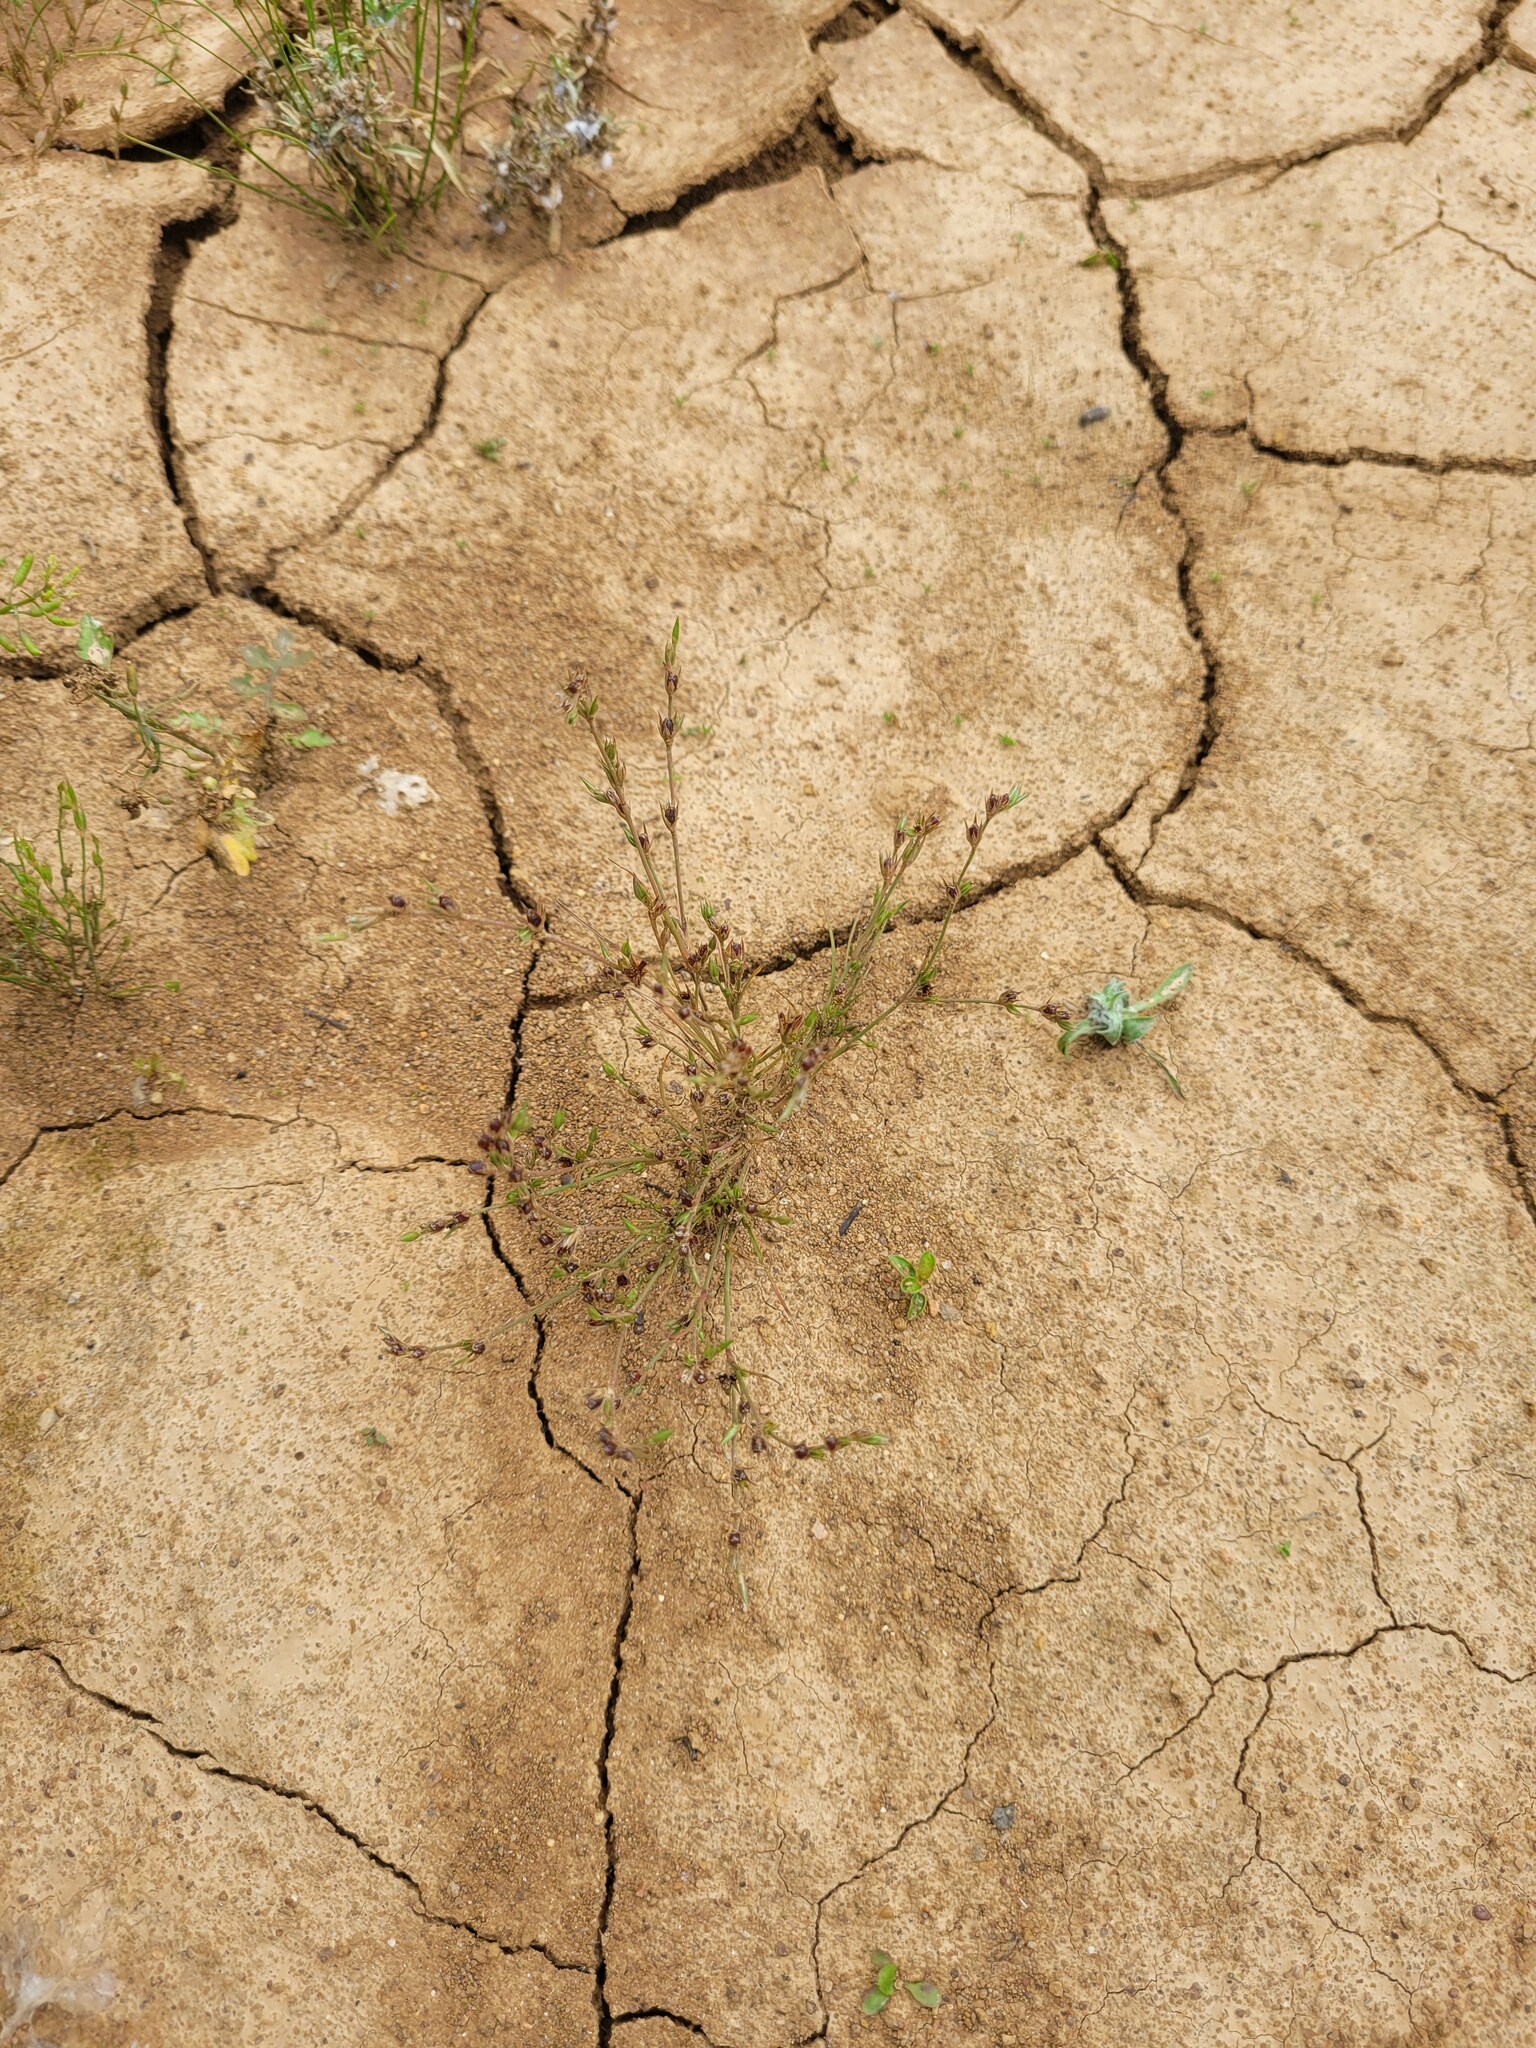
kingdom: Plantae
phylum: Tracheophyta
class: Liliopsida
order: Poales
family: Juncaceae
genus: Juncus
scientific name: Juncus bufonius
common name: Toad rush
